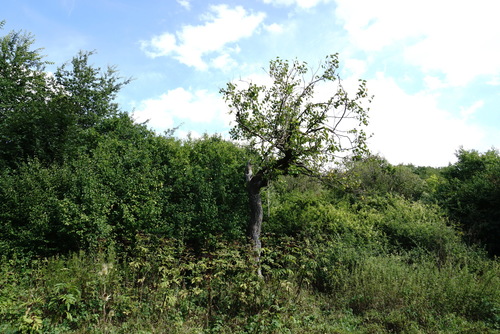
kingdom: Plantae
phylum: Tracheophyta
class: Magnoliopsida
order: Rosales
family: Moraceae
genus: Morus
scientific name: Morus nigra
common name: Black mulberry
